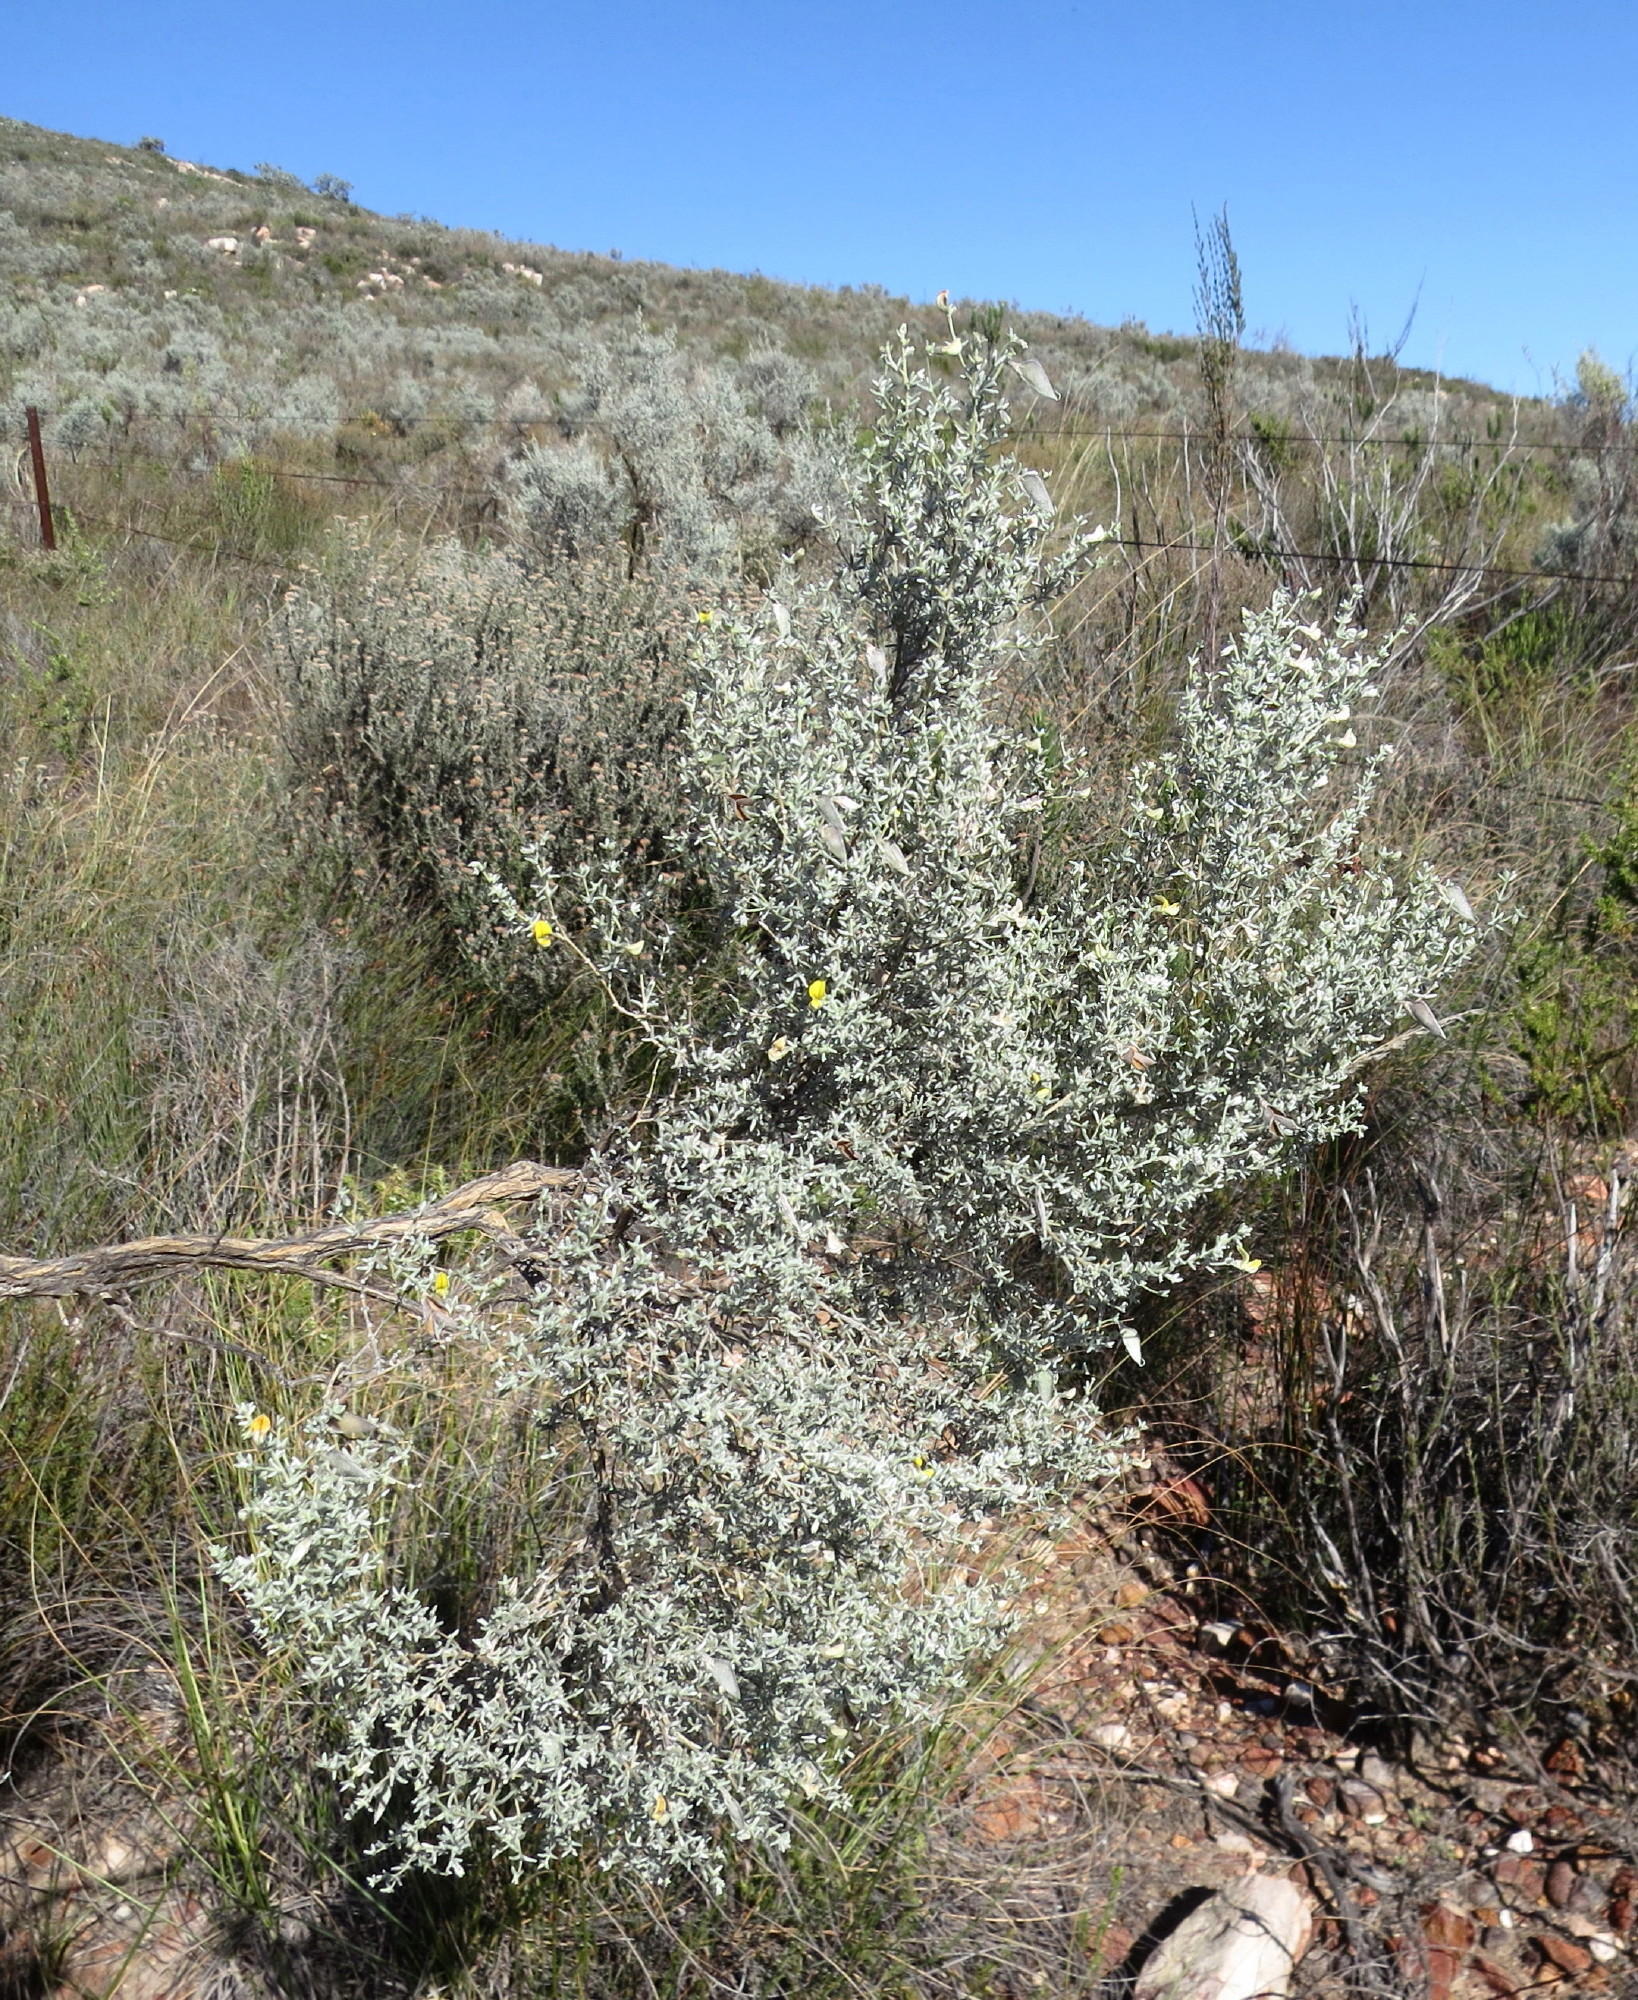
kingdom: Plantae
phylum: Tracheophyta
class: Magnoliopsida
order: Fabales
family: Fabaceae
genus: Aspalathus
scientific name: Aspalathus pedunculata
